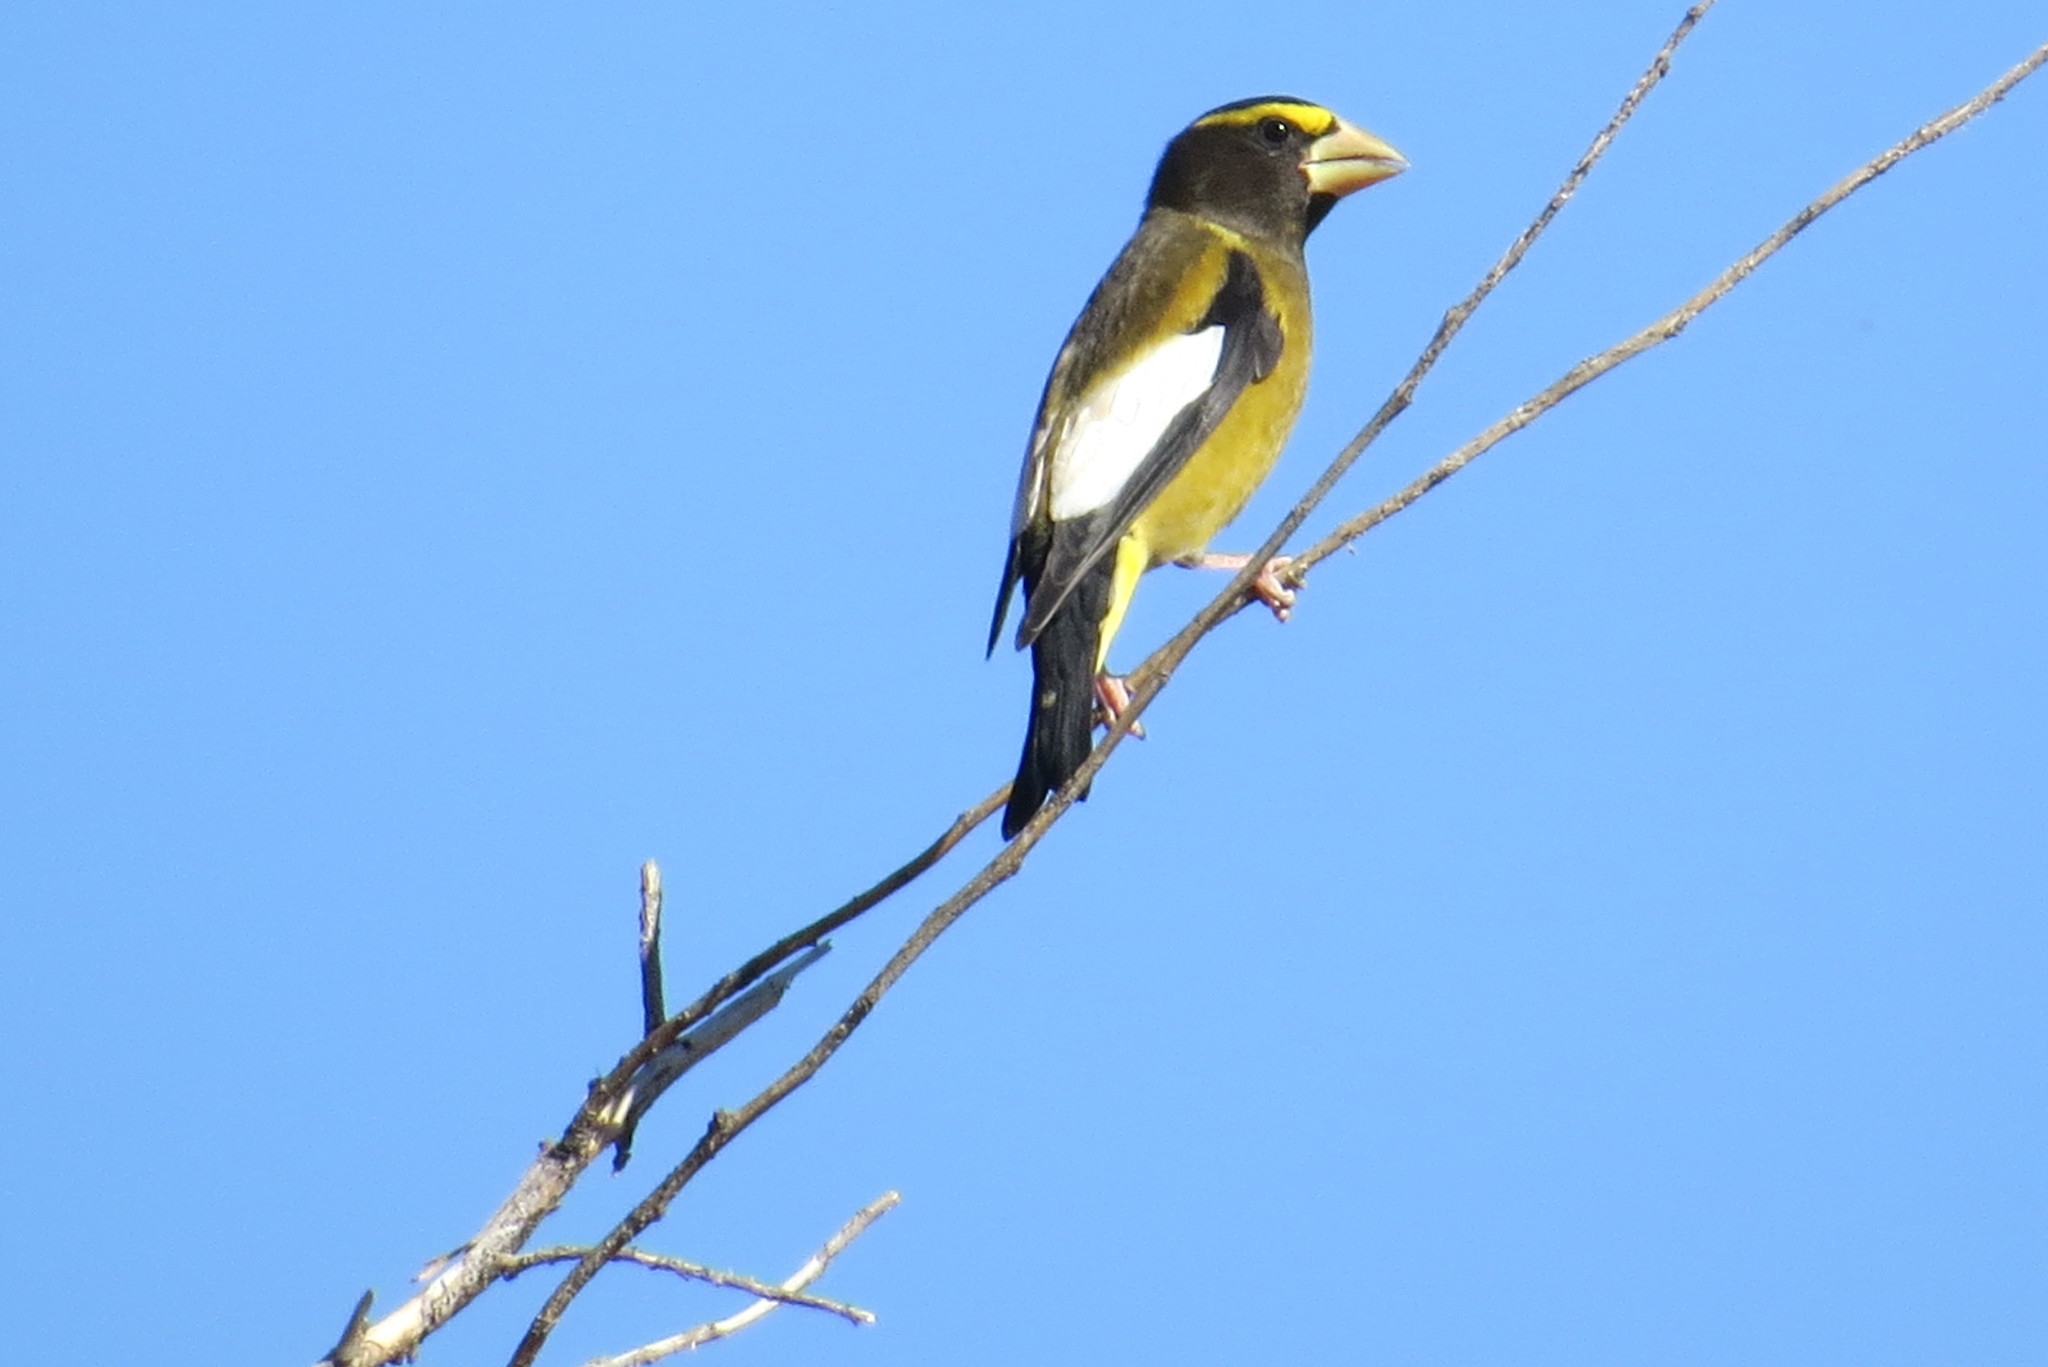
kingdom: Animalia
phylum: Chordata
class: Aves
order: Passeriformes
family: Fringillidae
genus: Hesperiphona
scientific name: Hesperiphona vespertina
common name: Evening grosbeak
